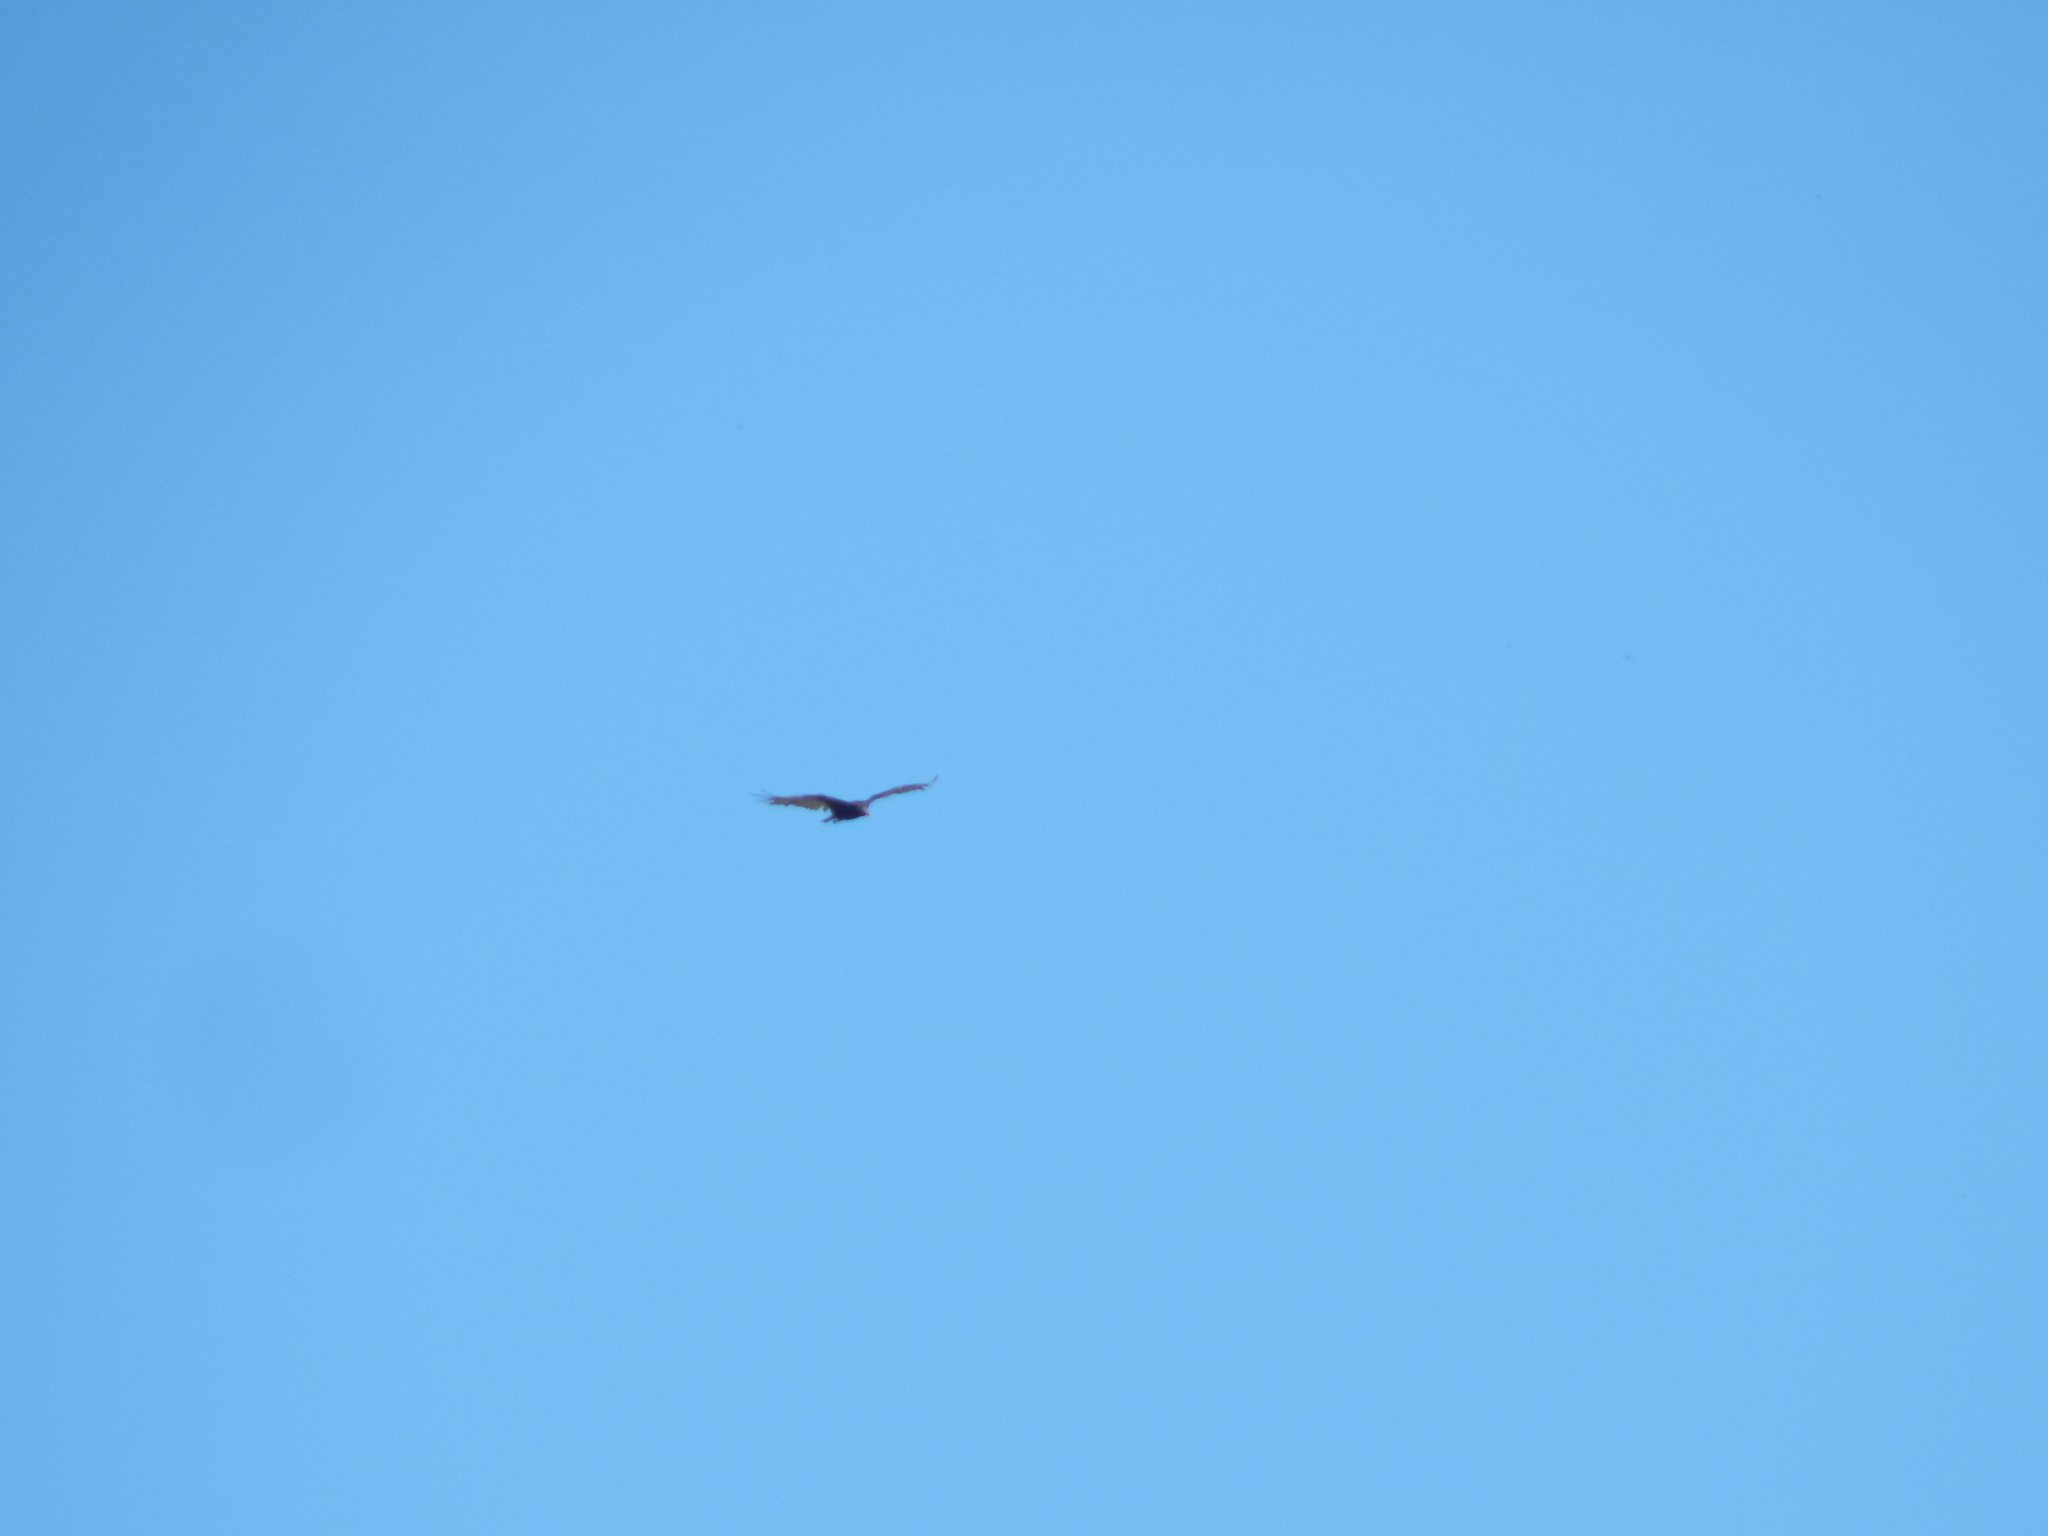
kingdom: Animalia
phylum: Chordata
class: Aves
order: Accipitriformes
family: Cathartidae
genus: Cathartes
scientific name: Cathartes aura
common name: Turkey vulture
